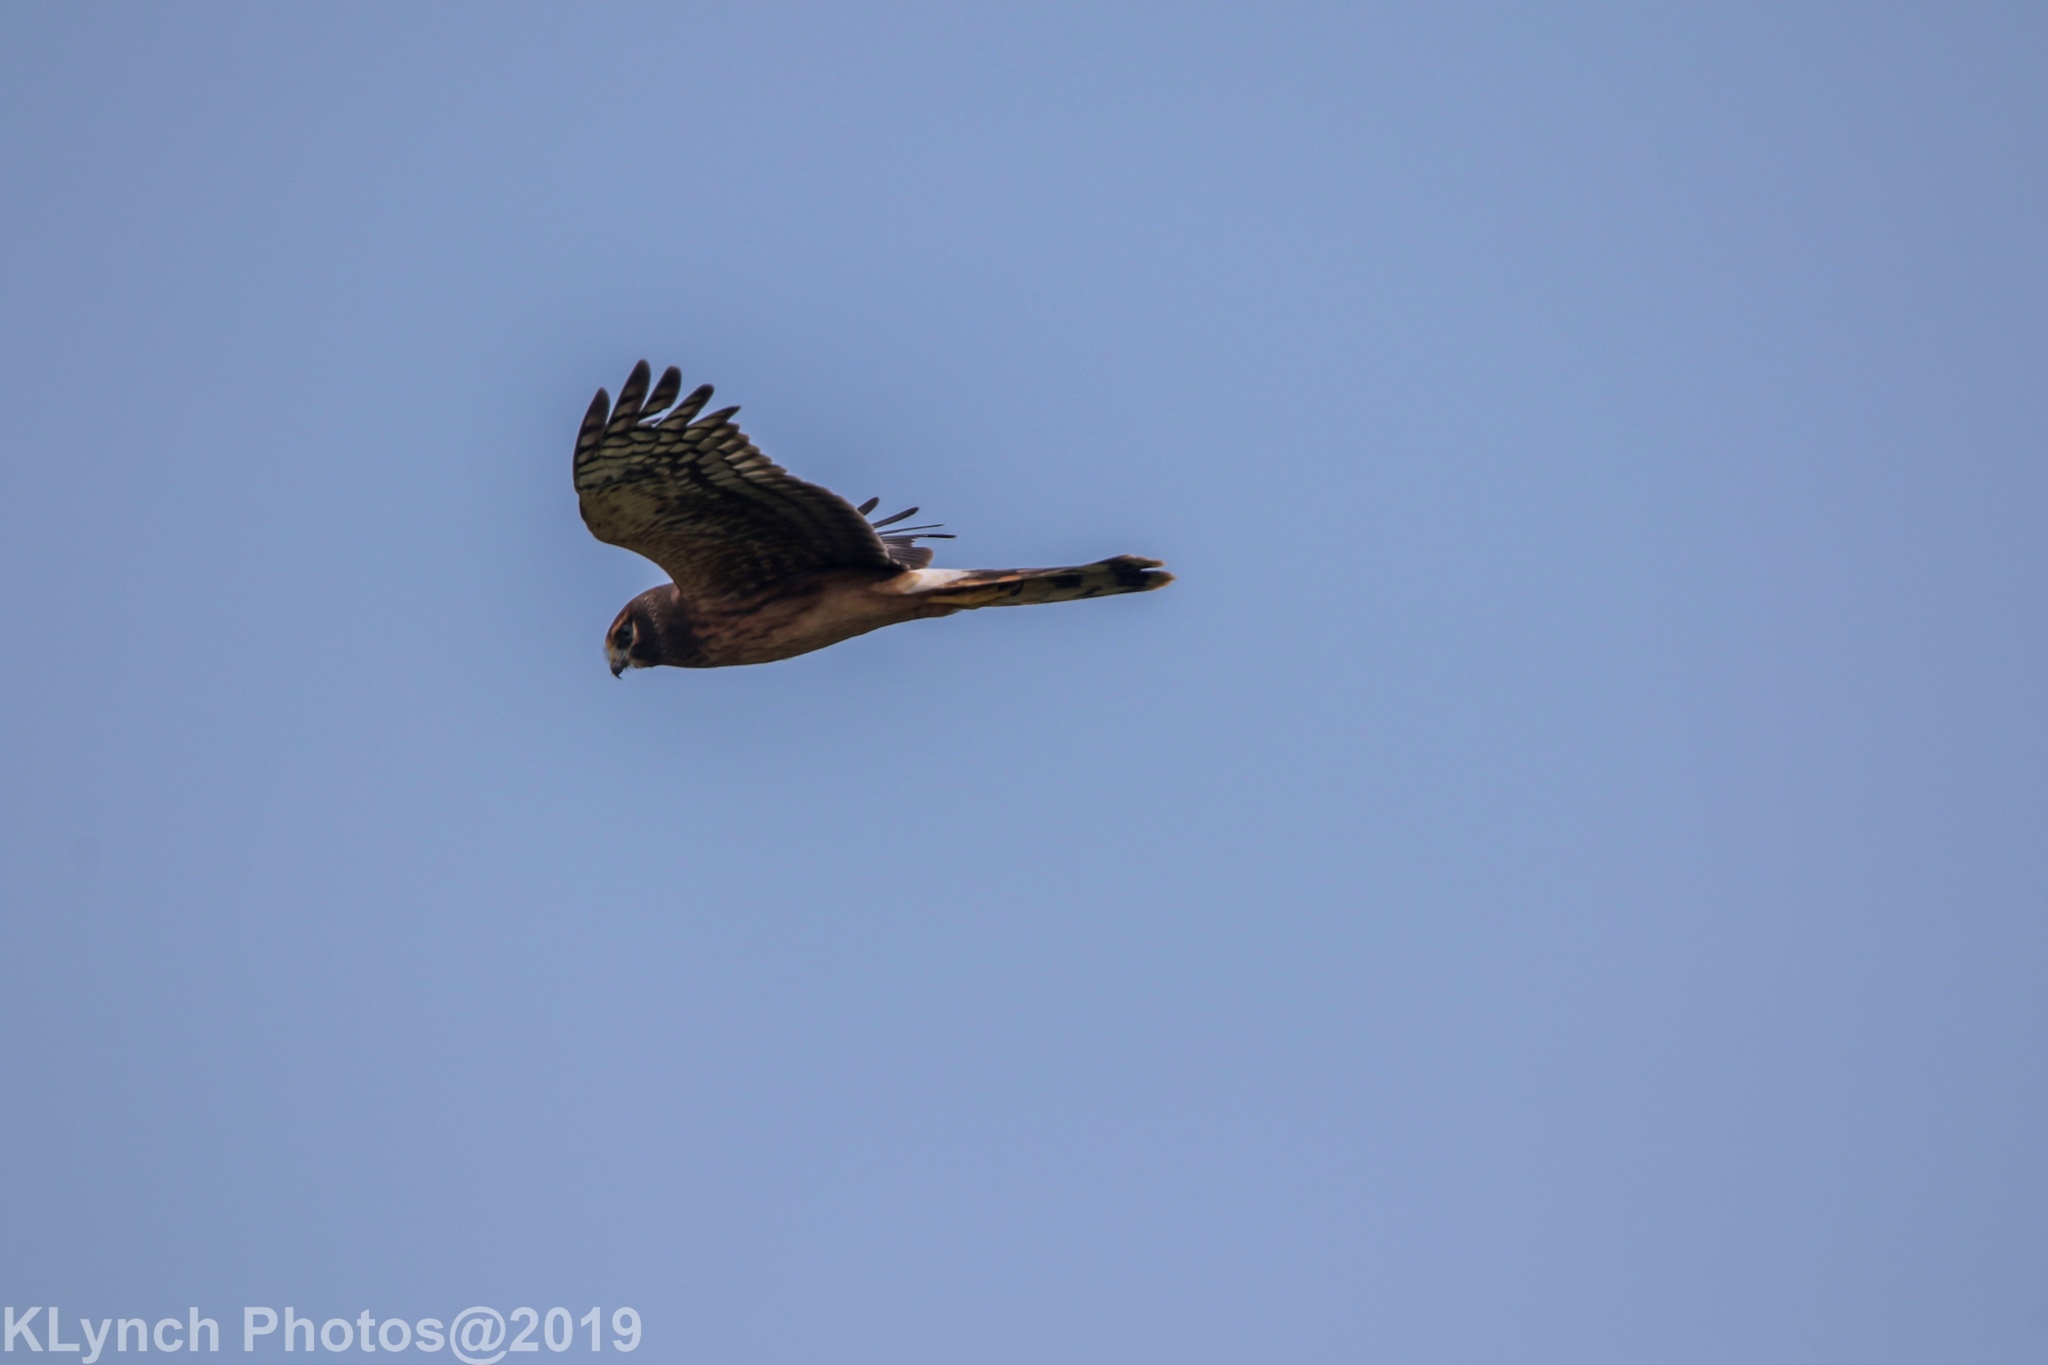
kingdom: Animalia
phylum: Chordata
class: Aves
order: Accipitriformes
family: Accipitridae
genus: Circus
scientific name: Circus cyaneus
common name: Hen harrier
